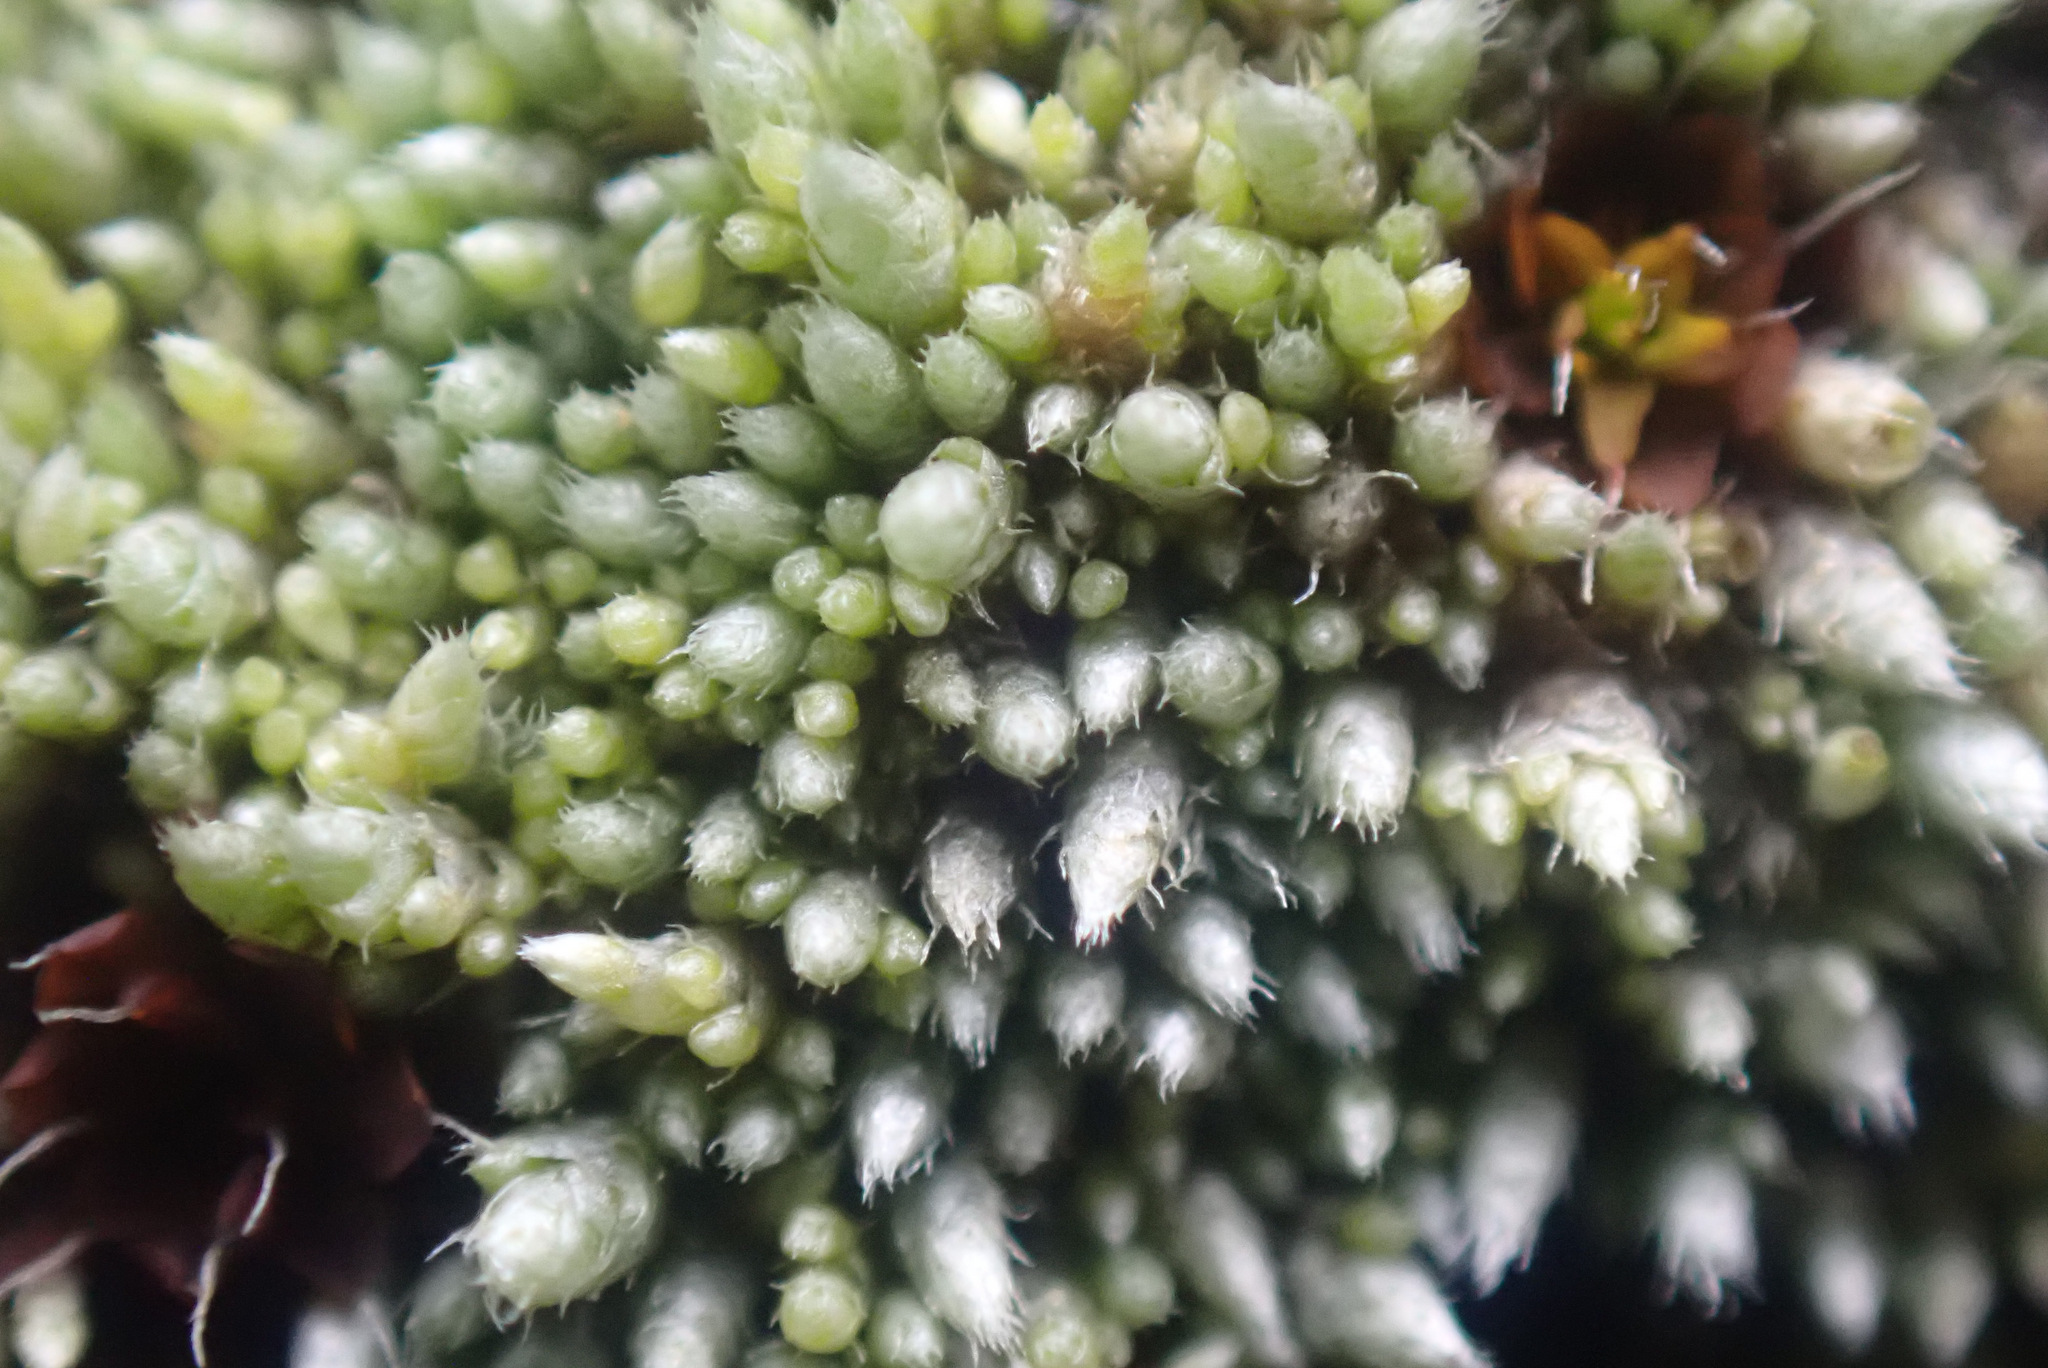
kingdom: Plantae
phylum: Bryophyta
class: Bryopsida
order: Bryales
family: Bryaceae
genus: Bryum
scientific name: Bryum argenteum
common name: Silver-moss
